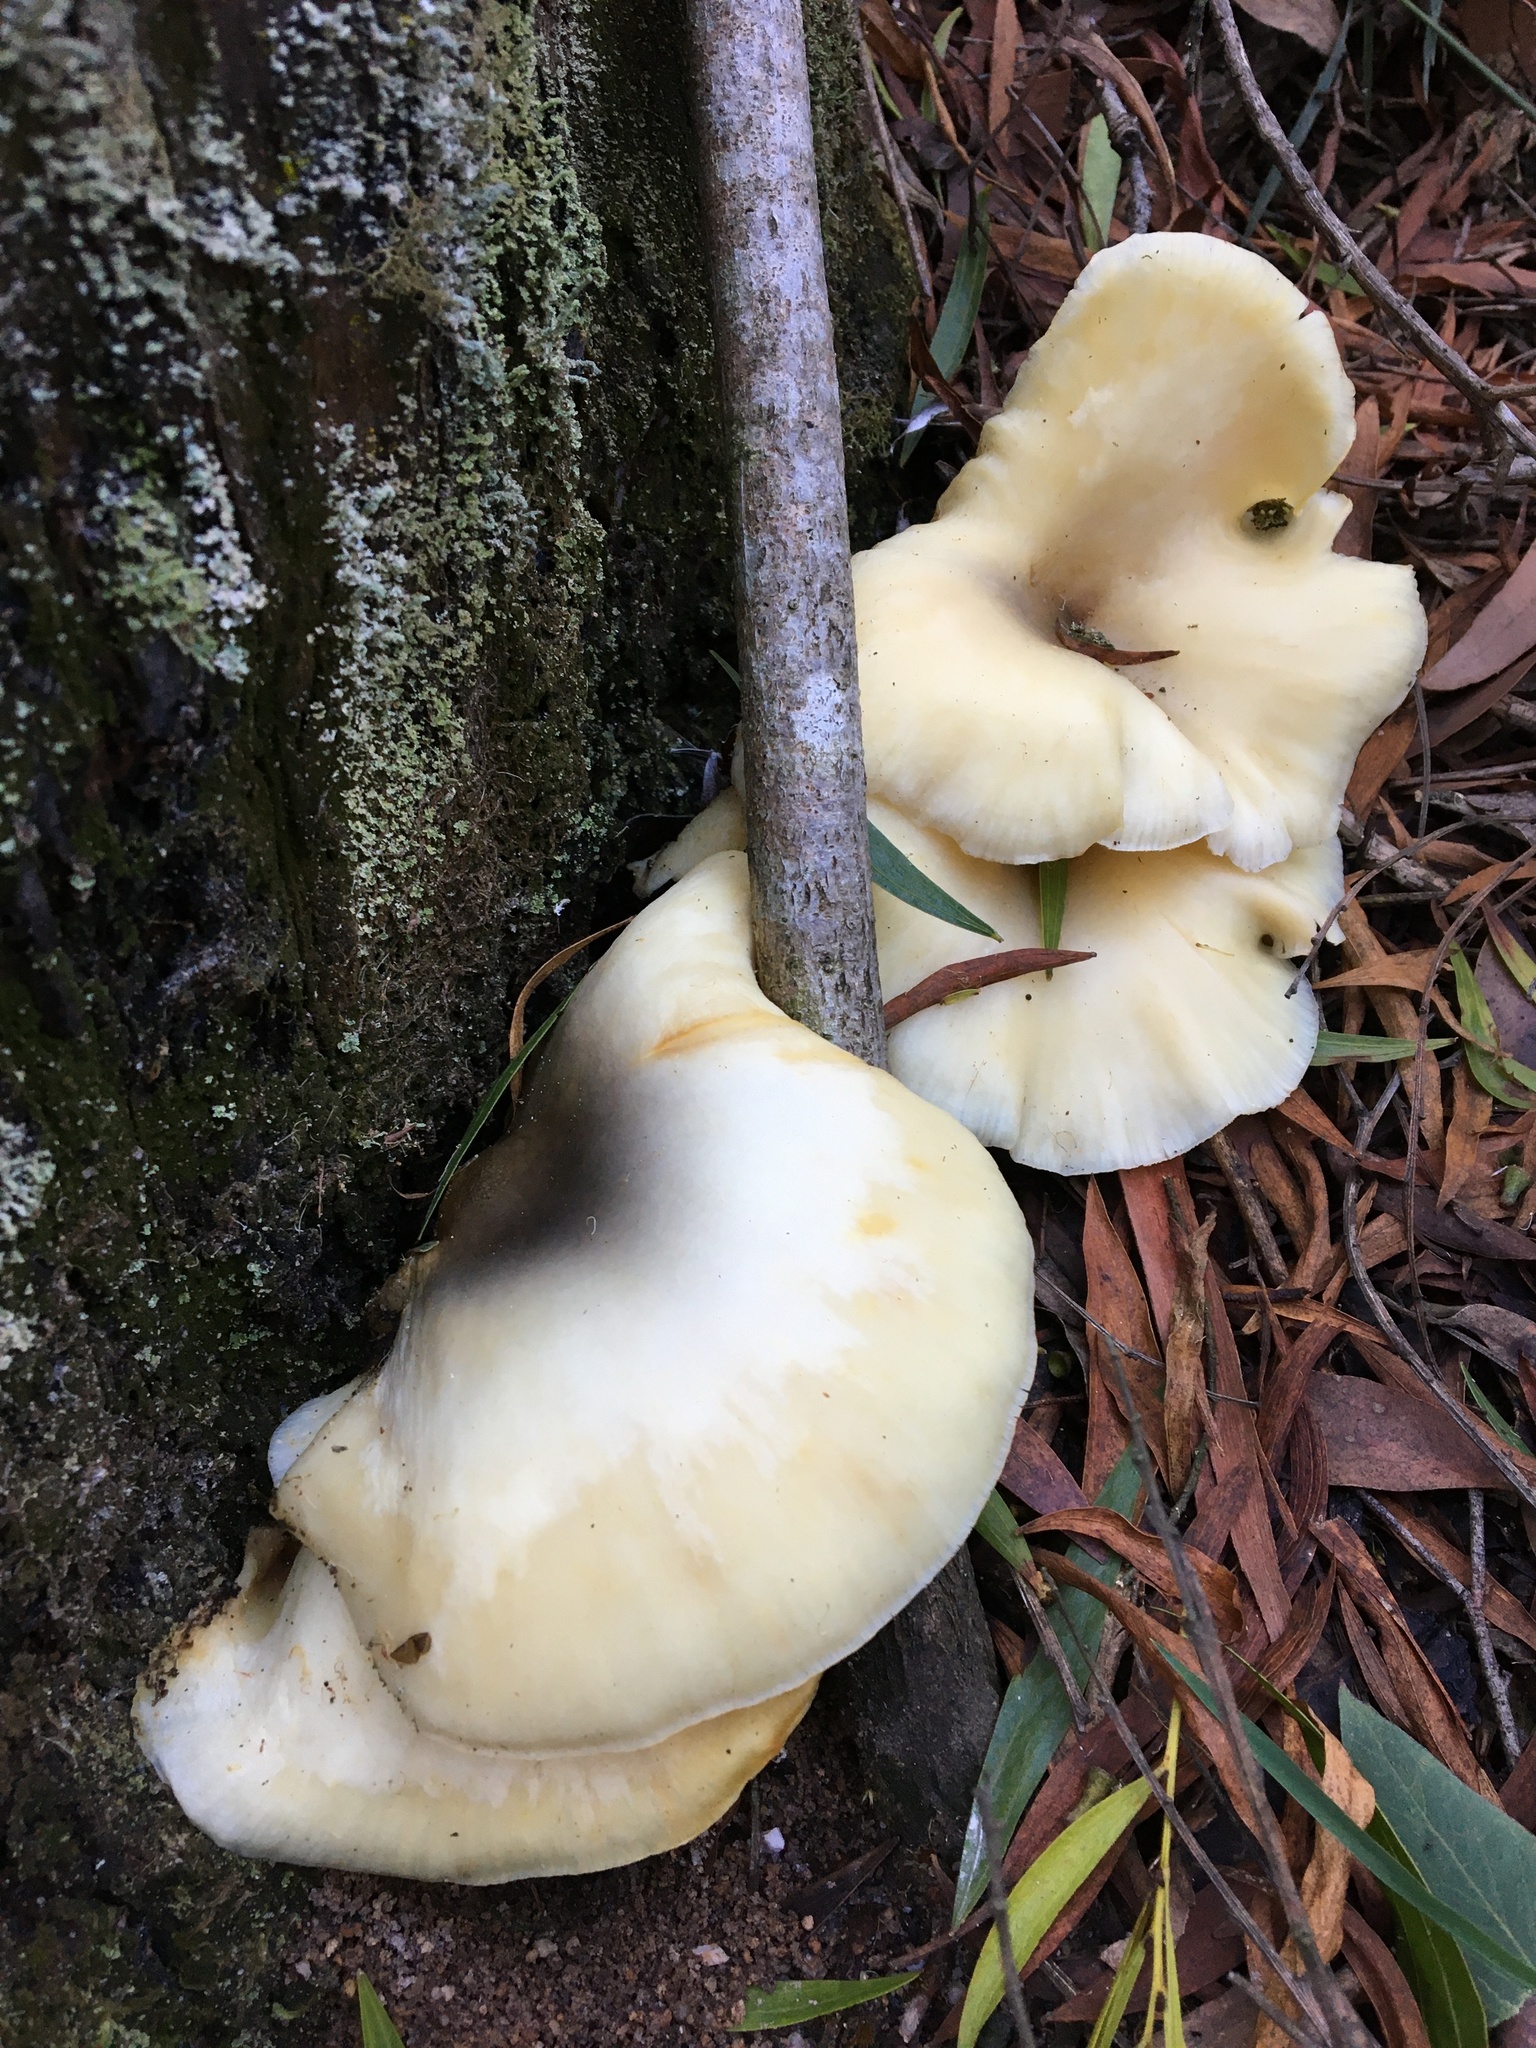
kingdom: Fungi
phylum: Basidiomycota
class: Agaricomycetes
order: Agaricales
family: Omphalotaceae
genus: Omphalotus
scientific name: Omphalotus nidiformis
